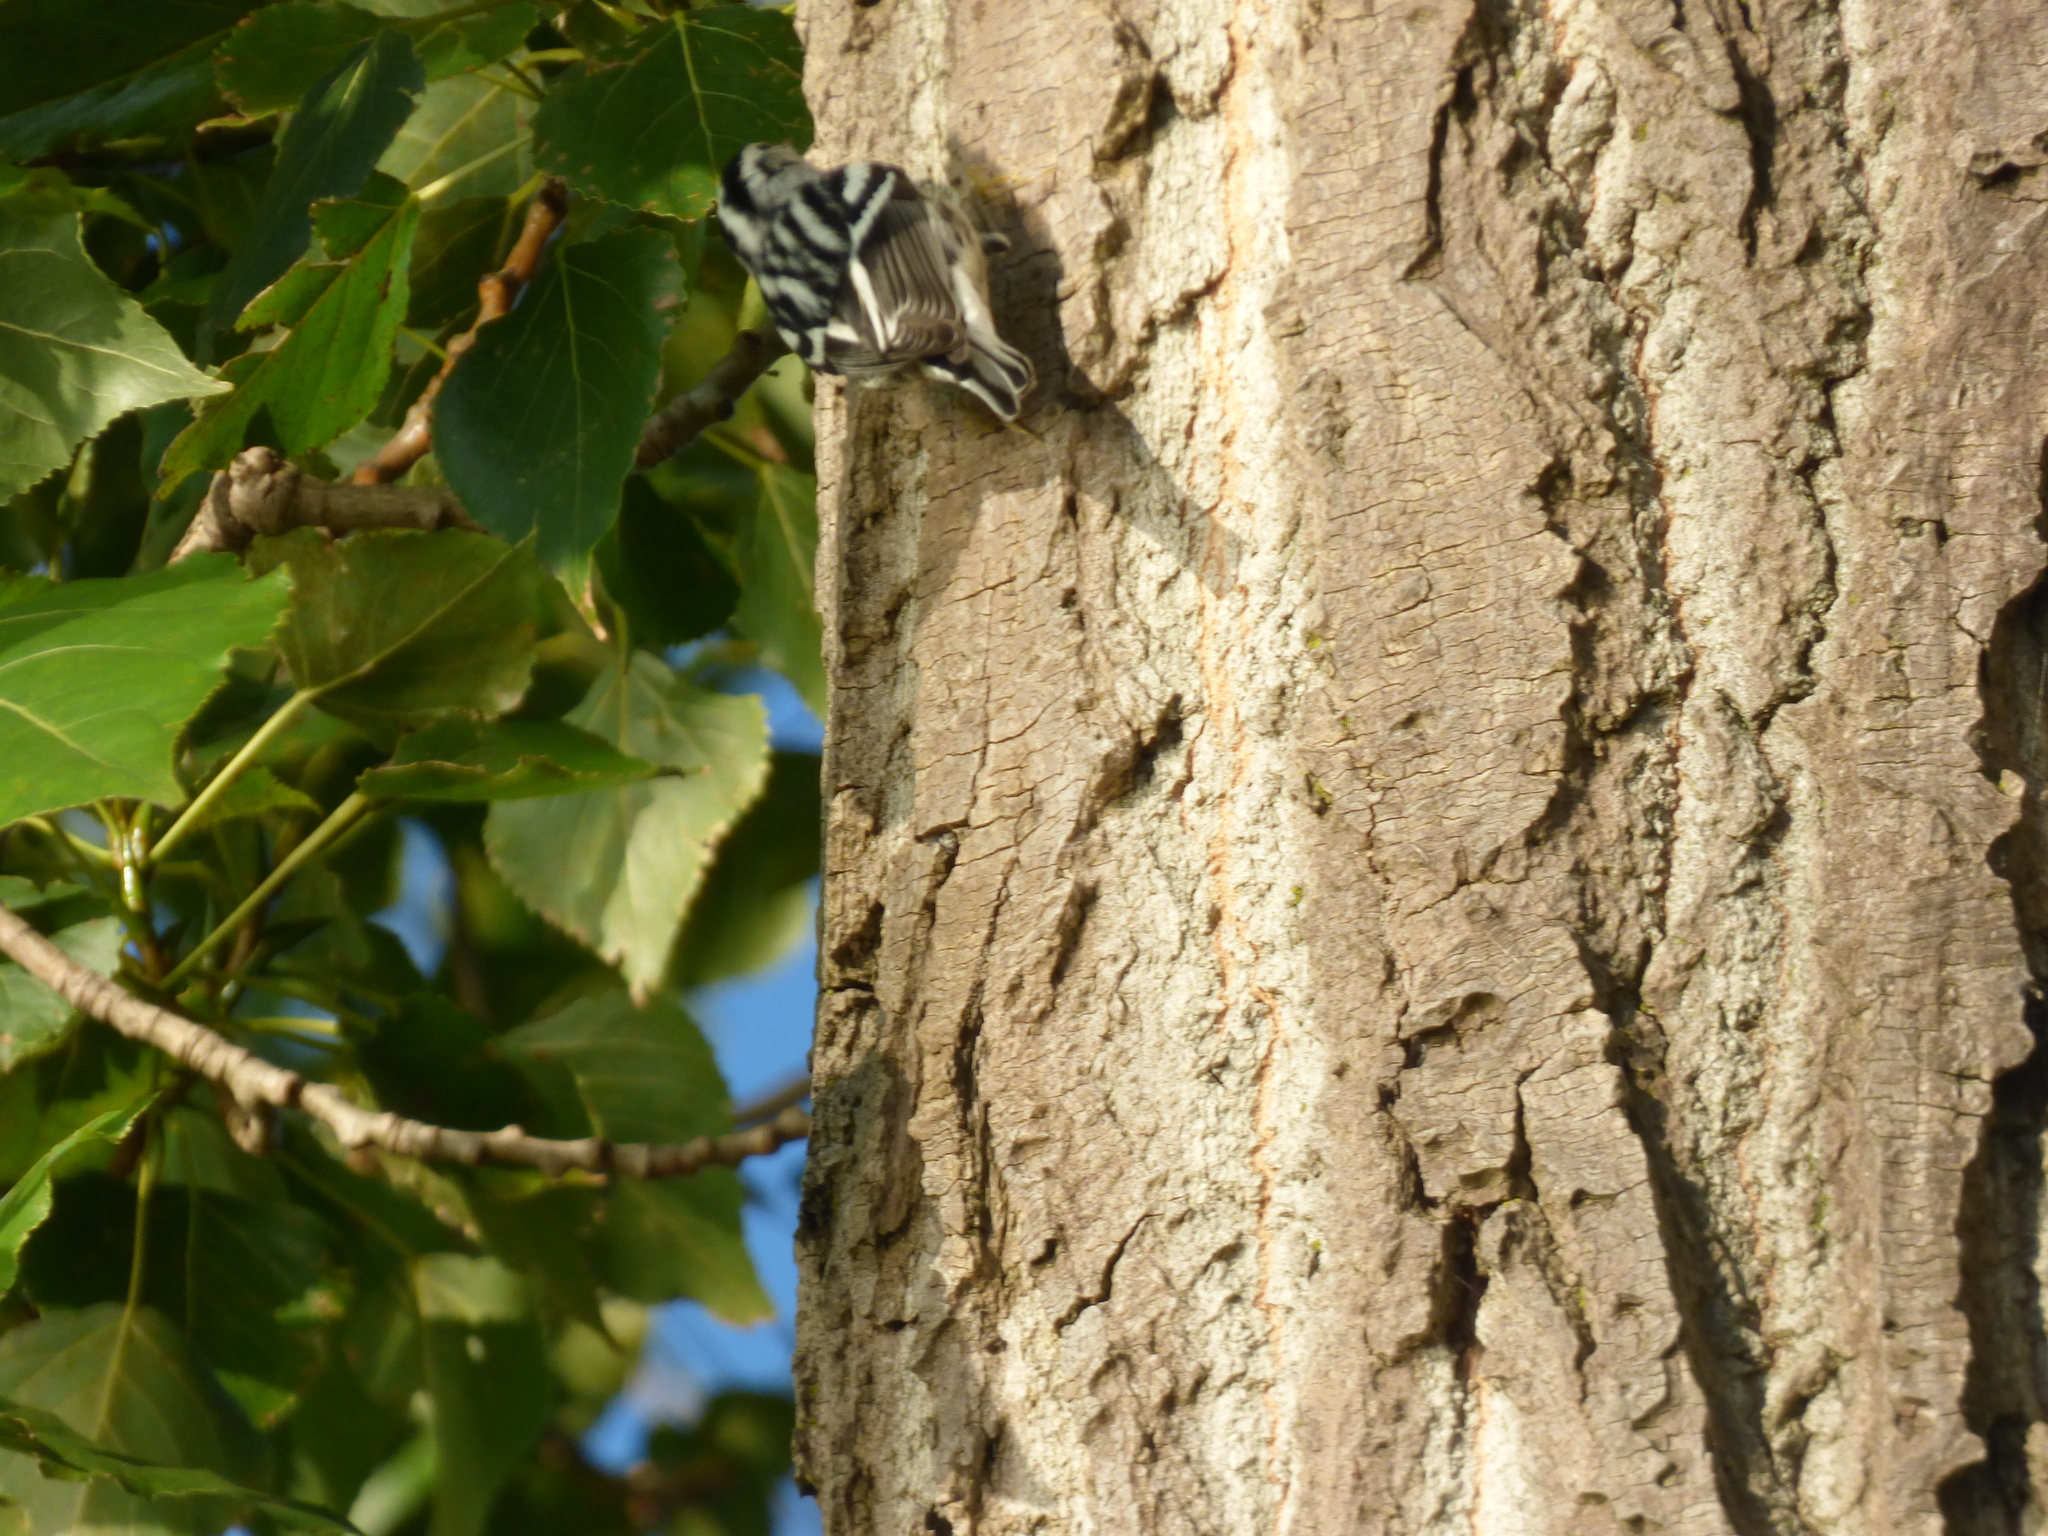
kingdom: Animalia
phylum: Chordata
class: Aves
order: Passeriformes
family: Parulidae
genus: Mniotilta
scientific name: Mniotilta varia
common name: Black-and-white warbler
